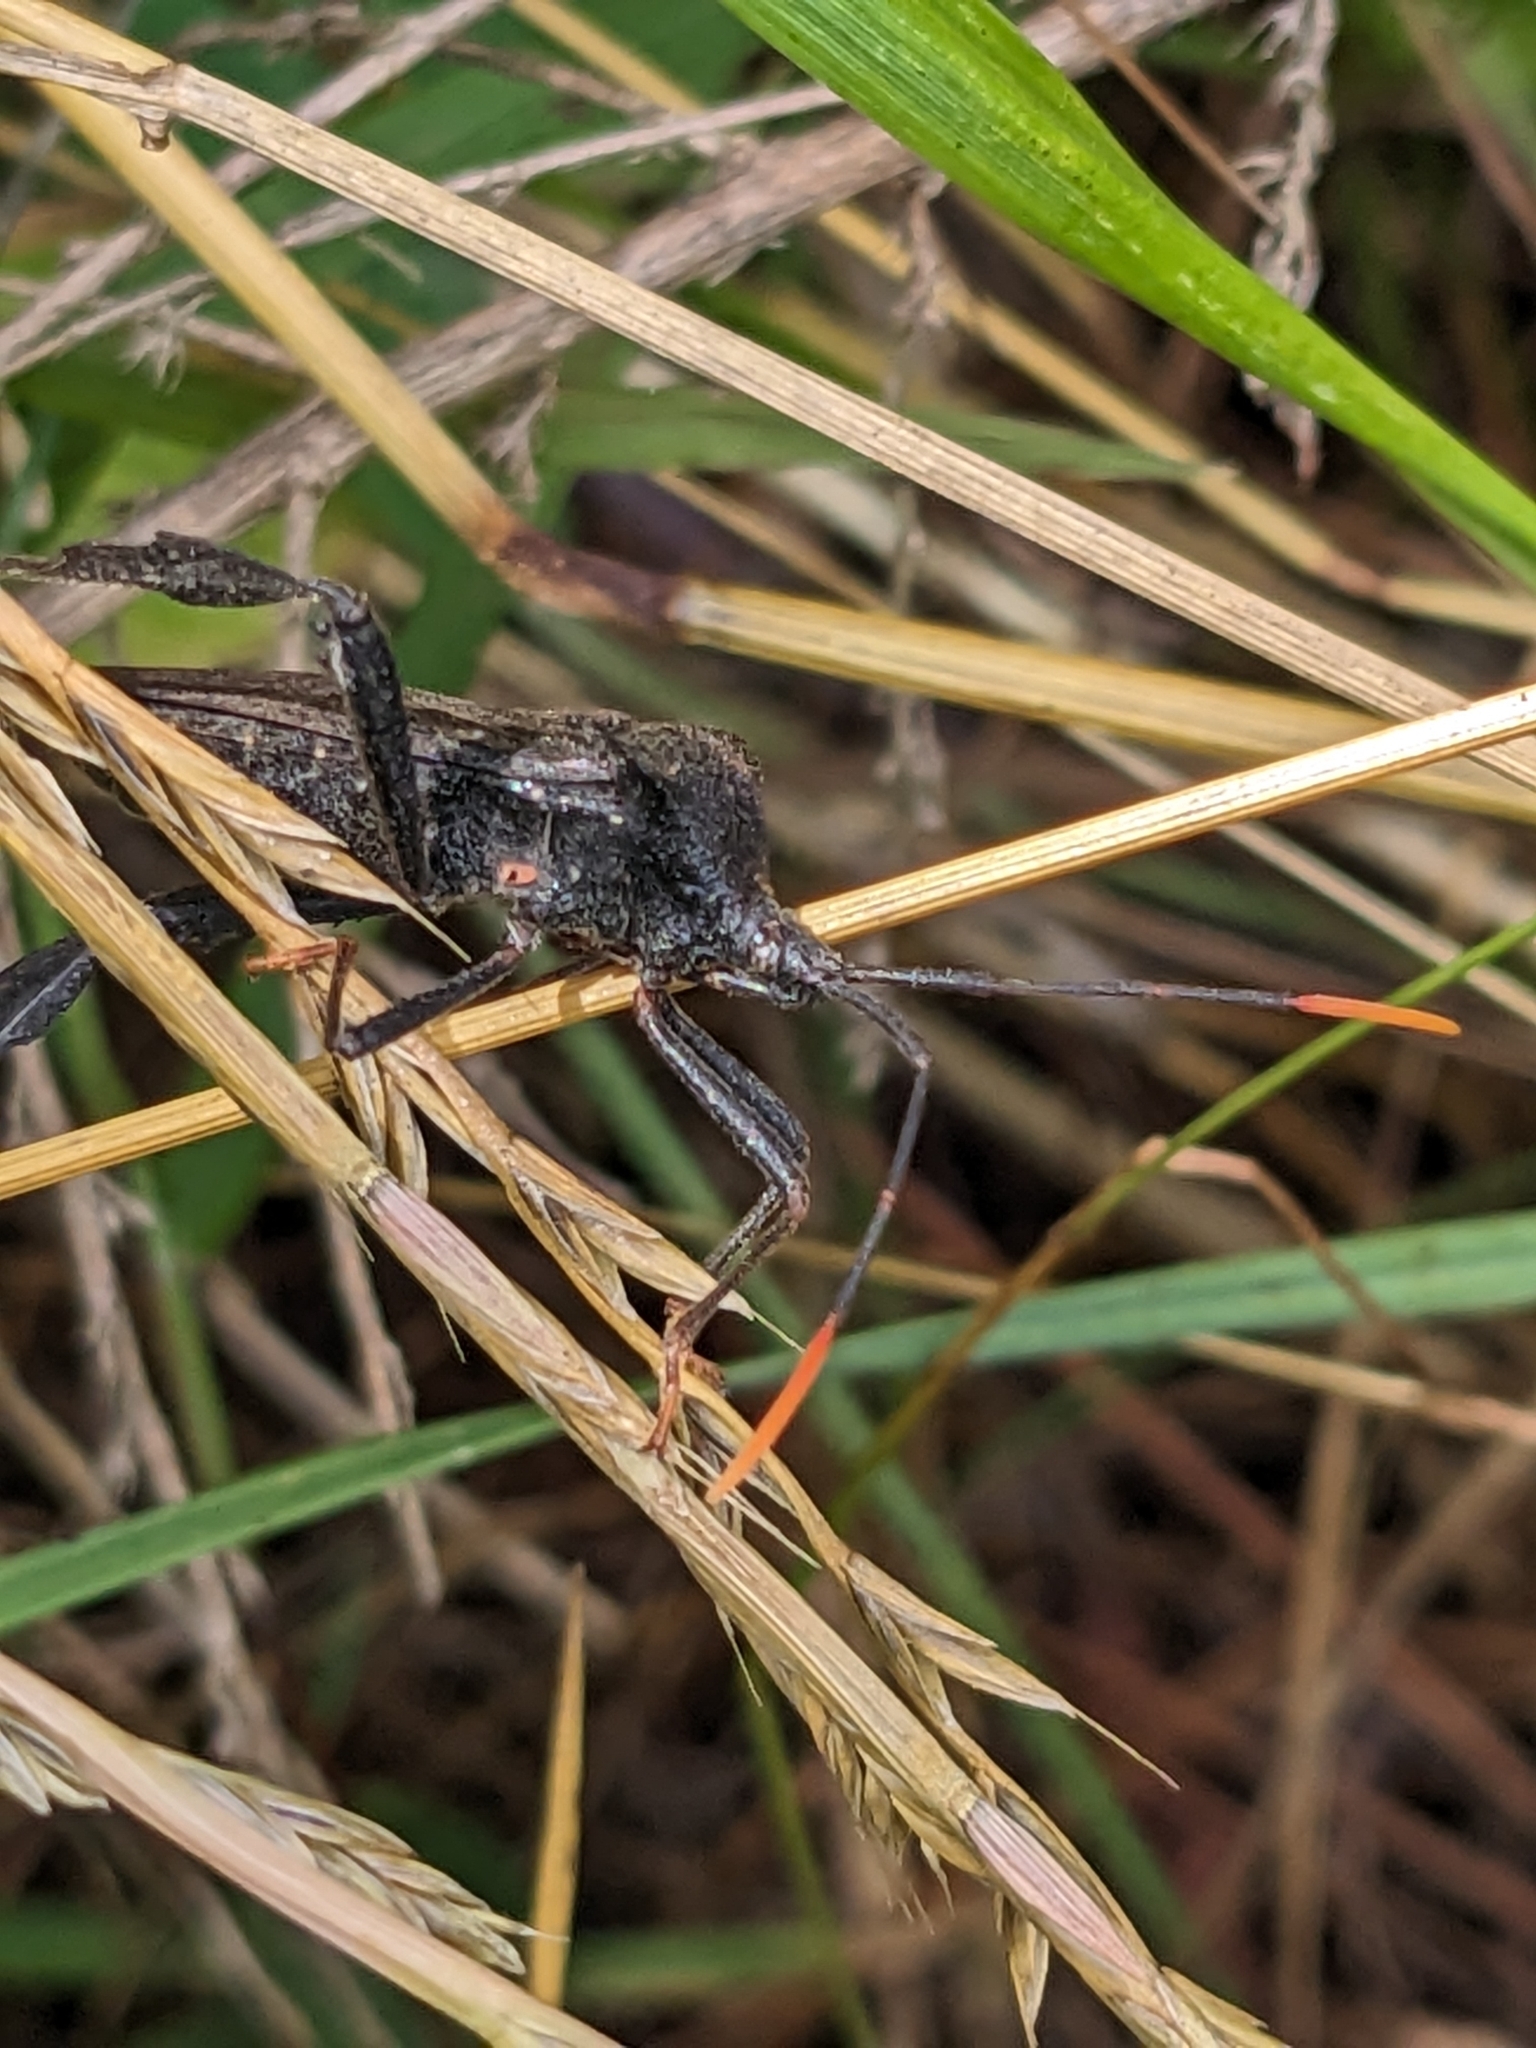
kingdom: Animalia
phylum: Arthropoda
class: Insecta
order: Hemiptera
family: Coreidae
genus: Acanthocephala
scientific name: Acanthocephala terminalis
